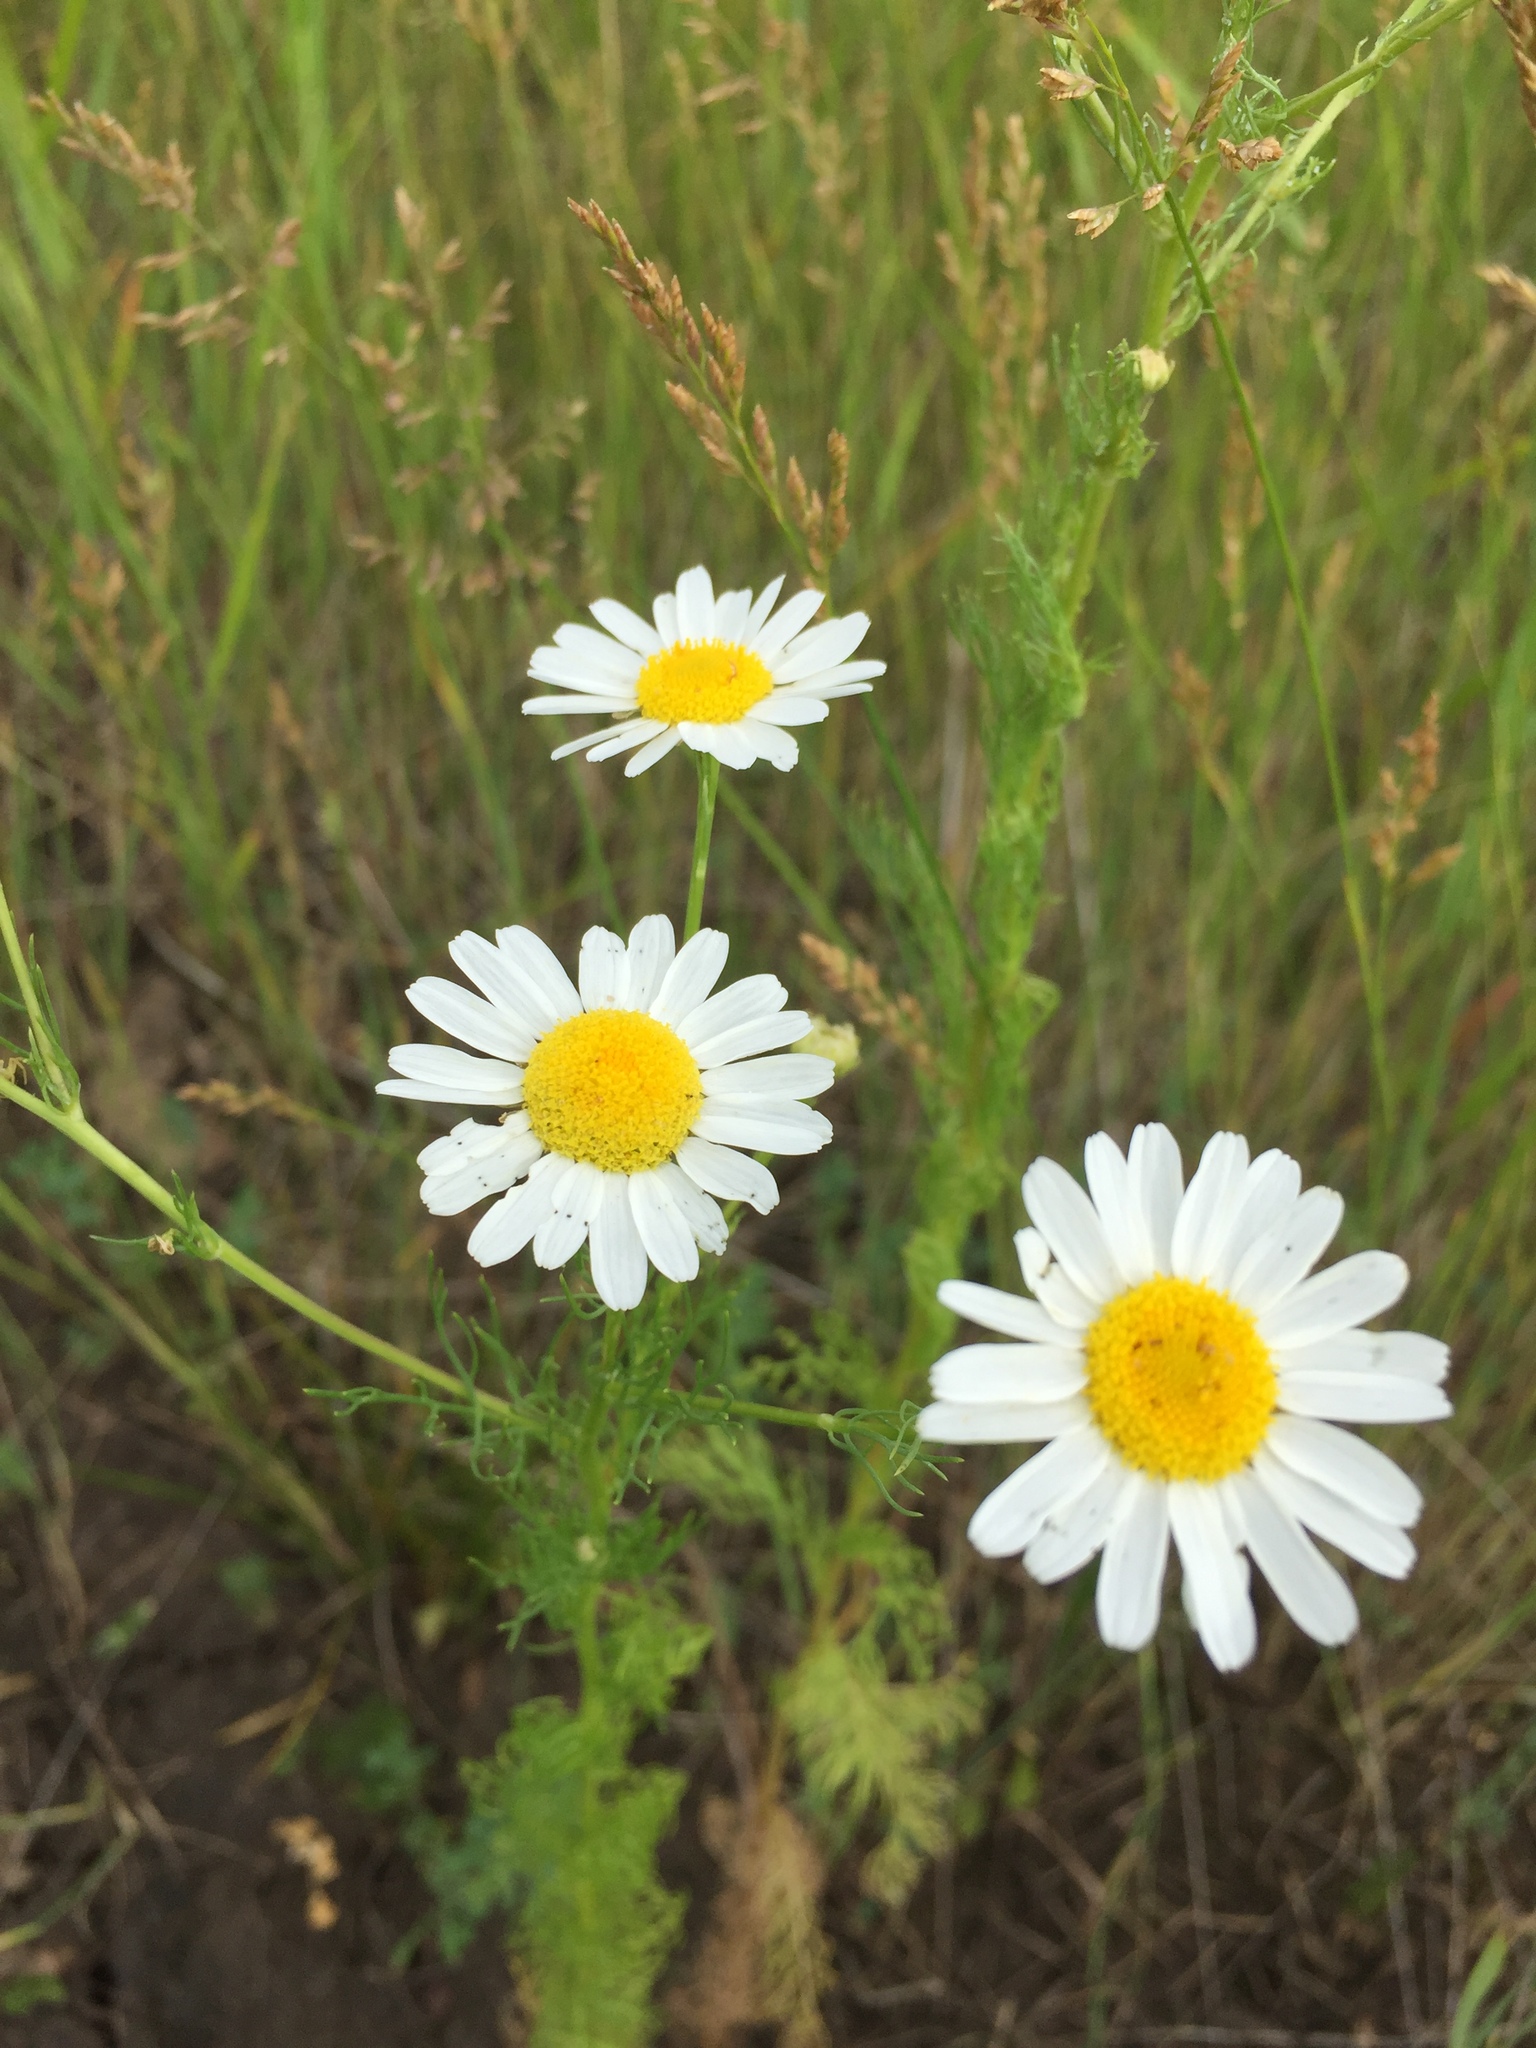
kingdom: Plantae
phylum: Tracheophyta
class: Magnoliopsida
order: Asterales
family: Asteraceae
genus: Tripleurospermum
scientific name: Tripleurospermum inodorum
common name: Scentless mayweed
